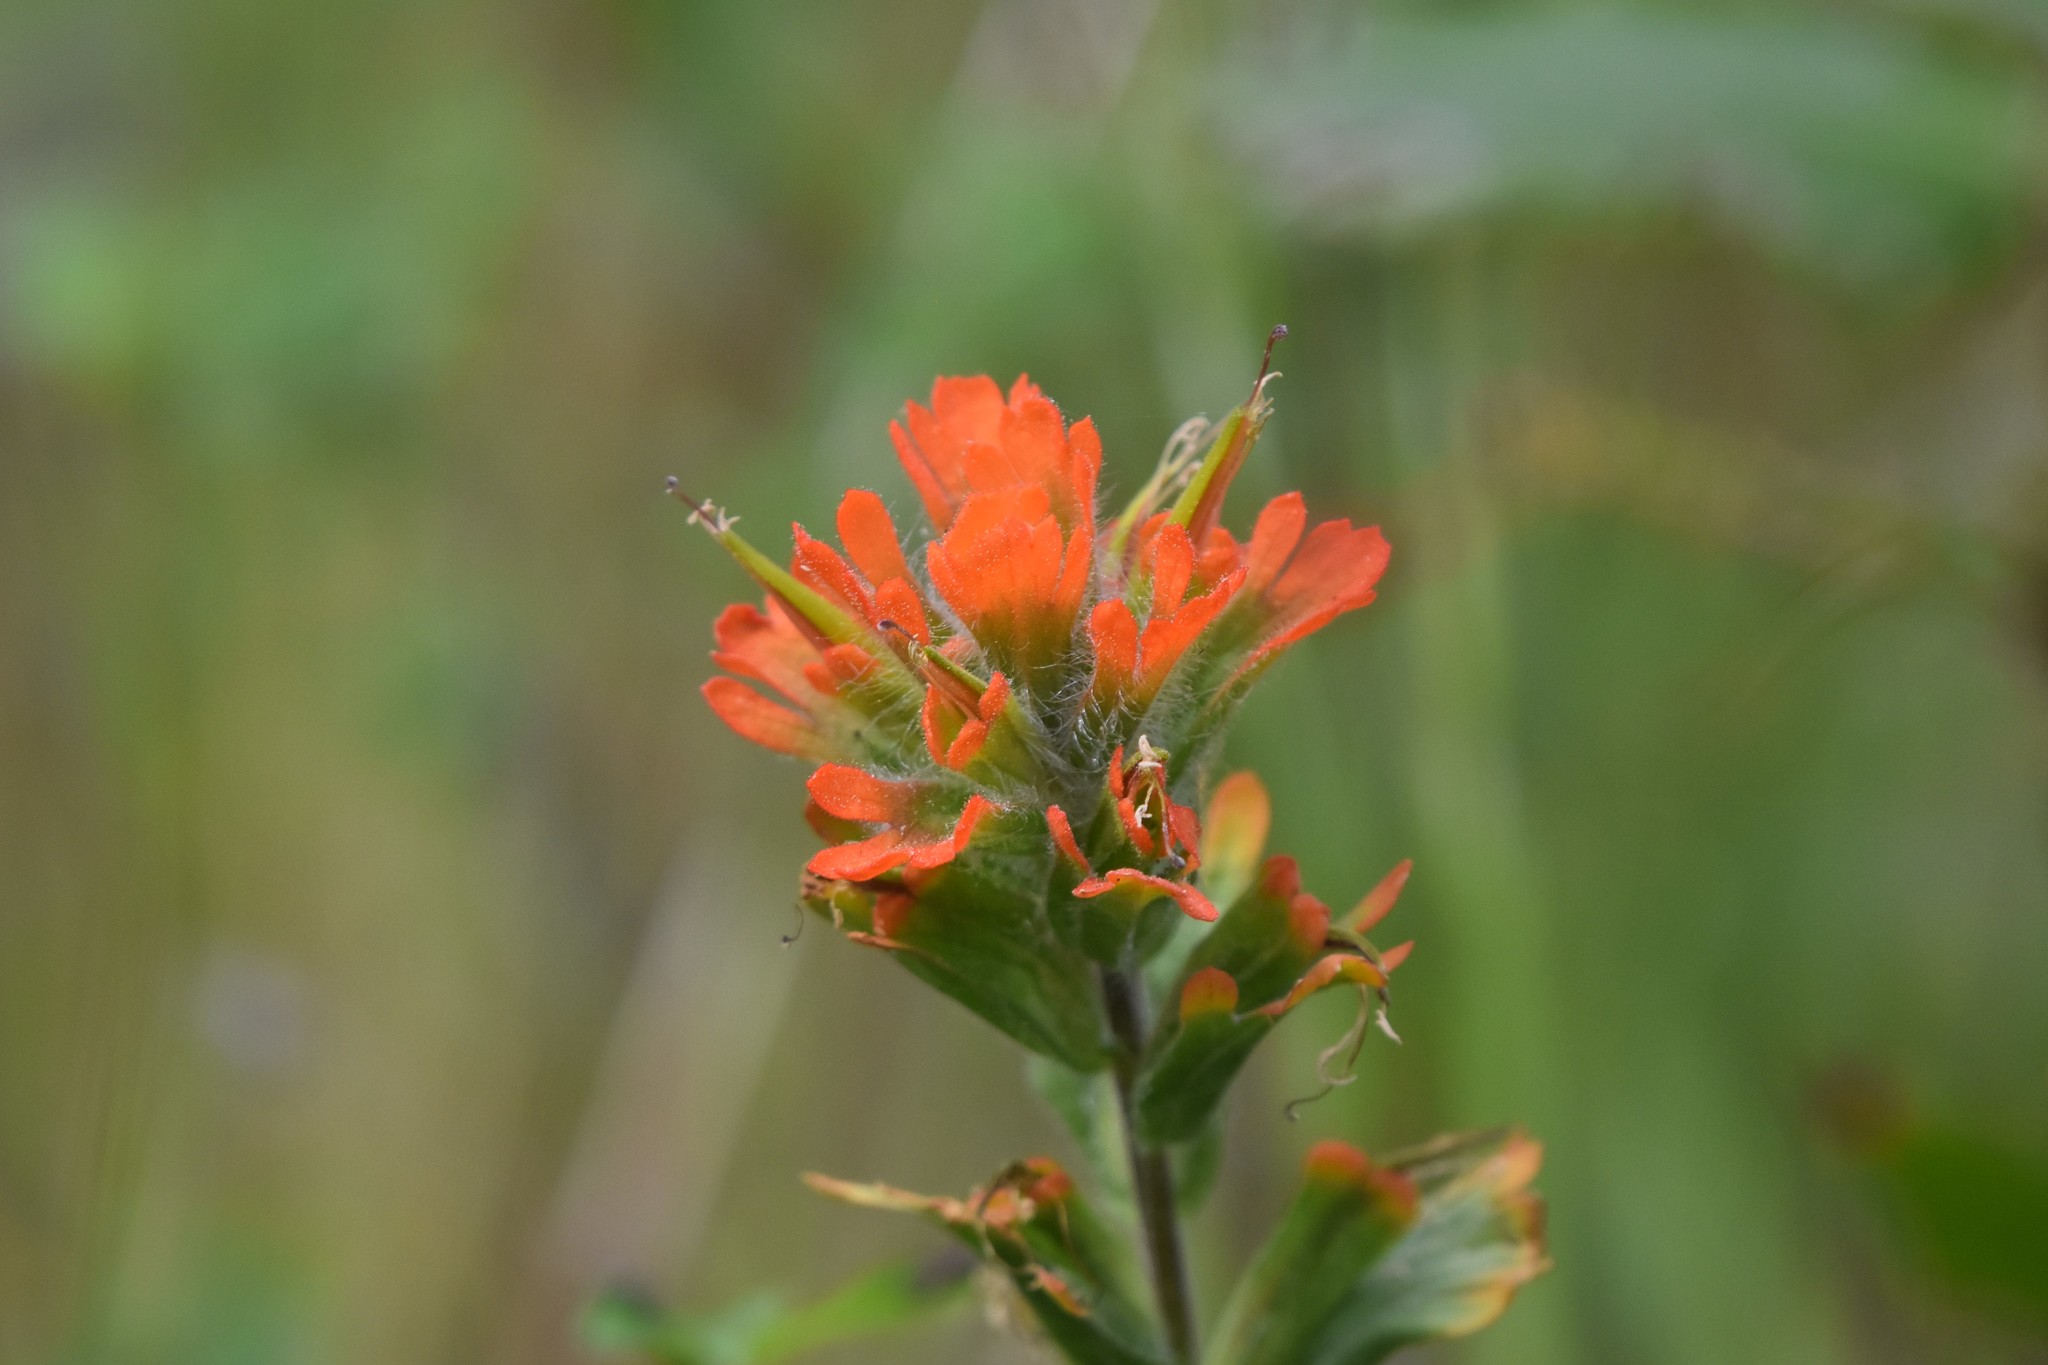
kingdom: Plantae
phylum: Tracheophyta
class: Magnoliopsida
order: Lamiales
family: Orobanchaceae
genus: Castilleja
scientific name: Castilleja hispida
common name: Bristly paintbrush
